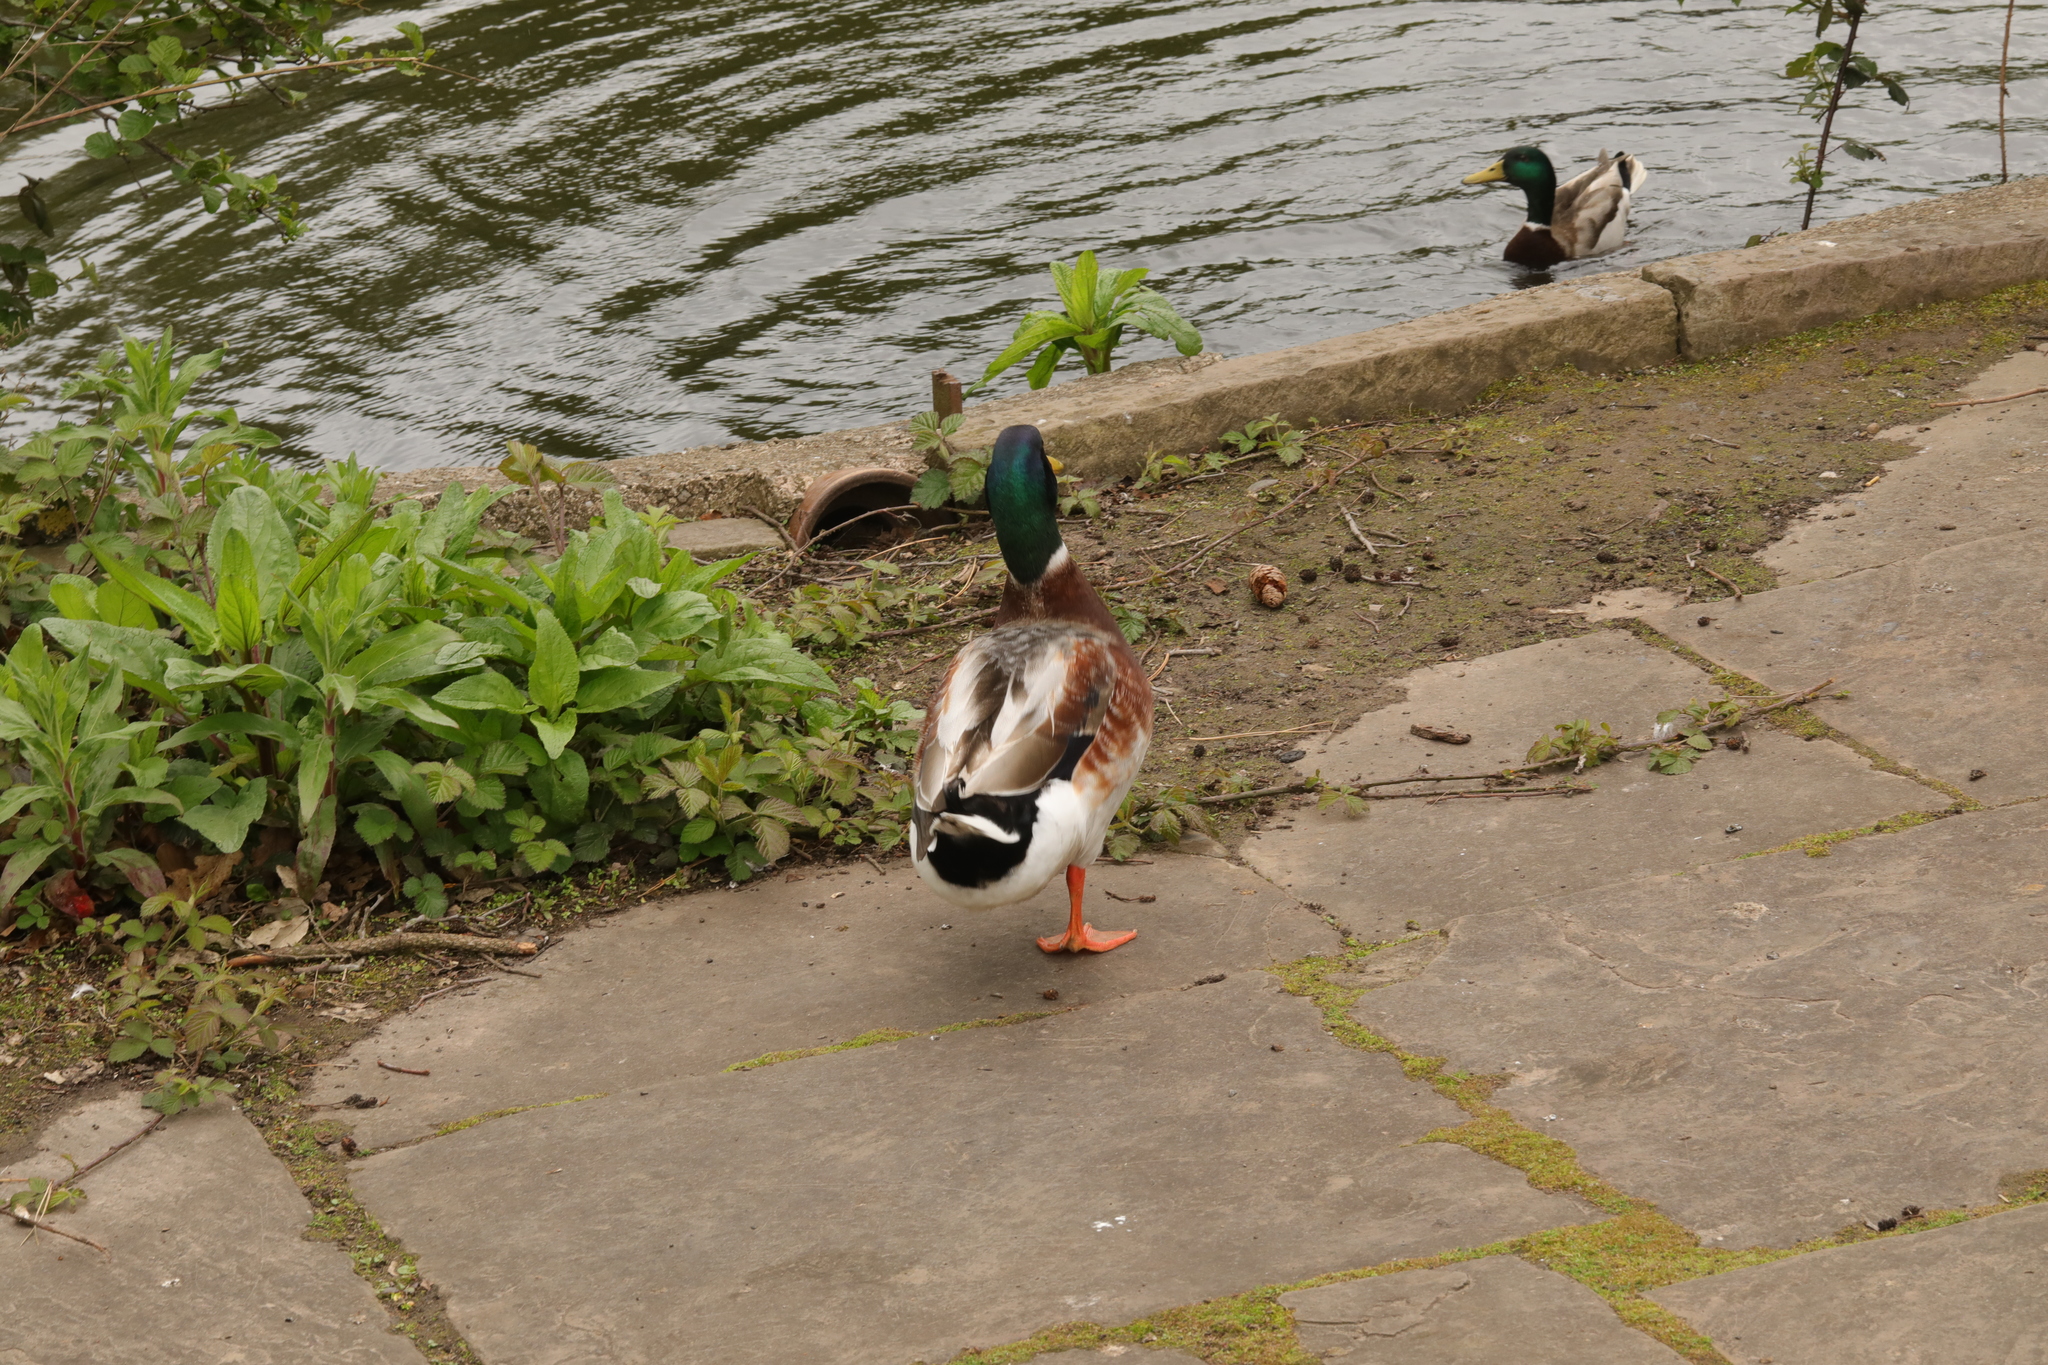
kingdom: Animalia
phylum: Chordata
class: Aves
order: Anseriformes
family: Anatidae
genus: Anas
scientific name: Anas platyrhynchos
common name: Mallard
